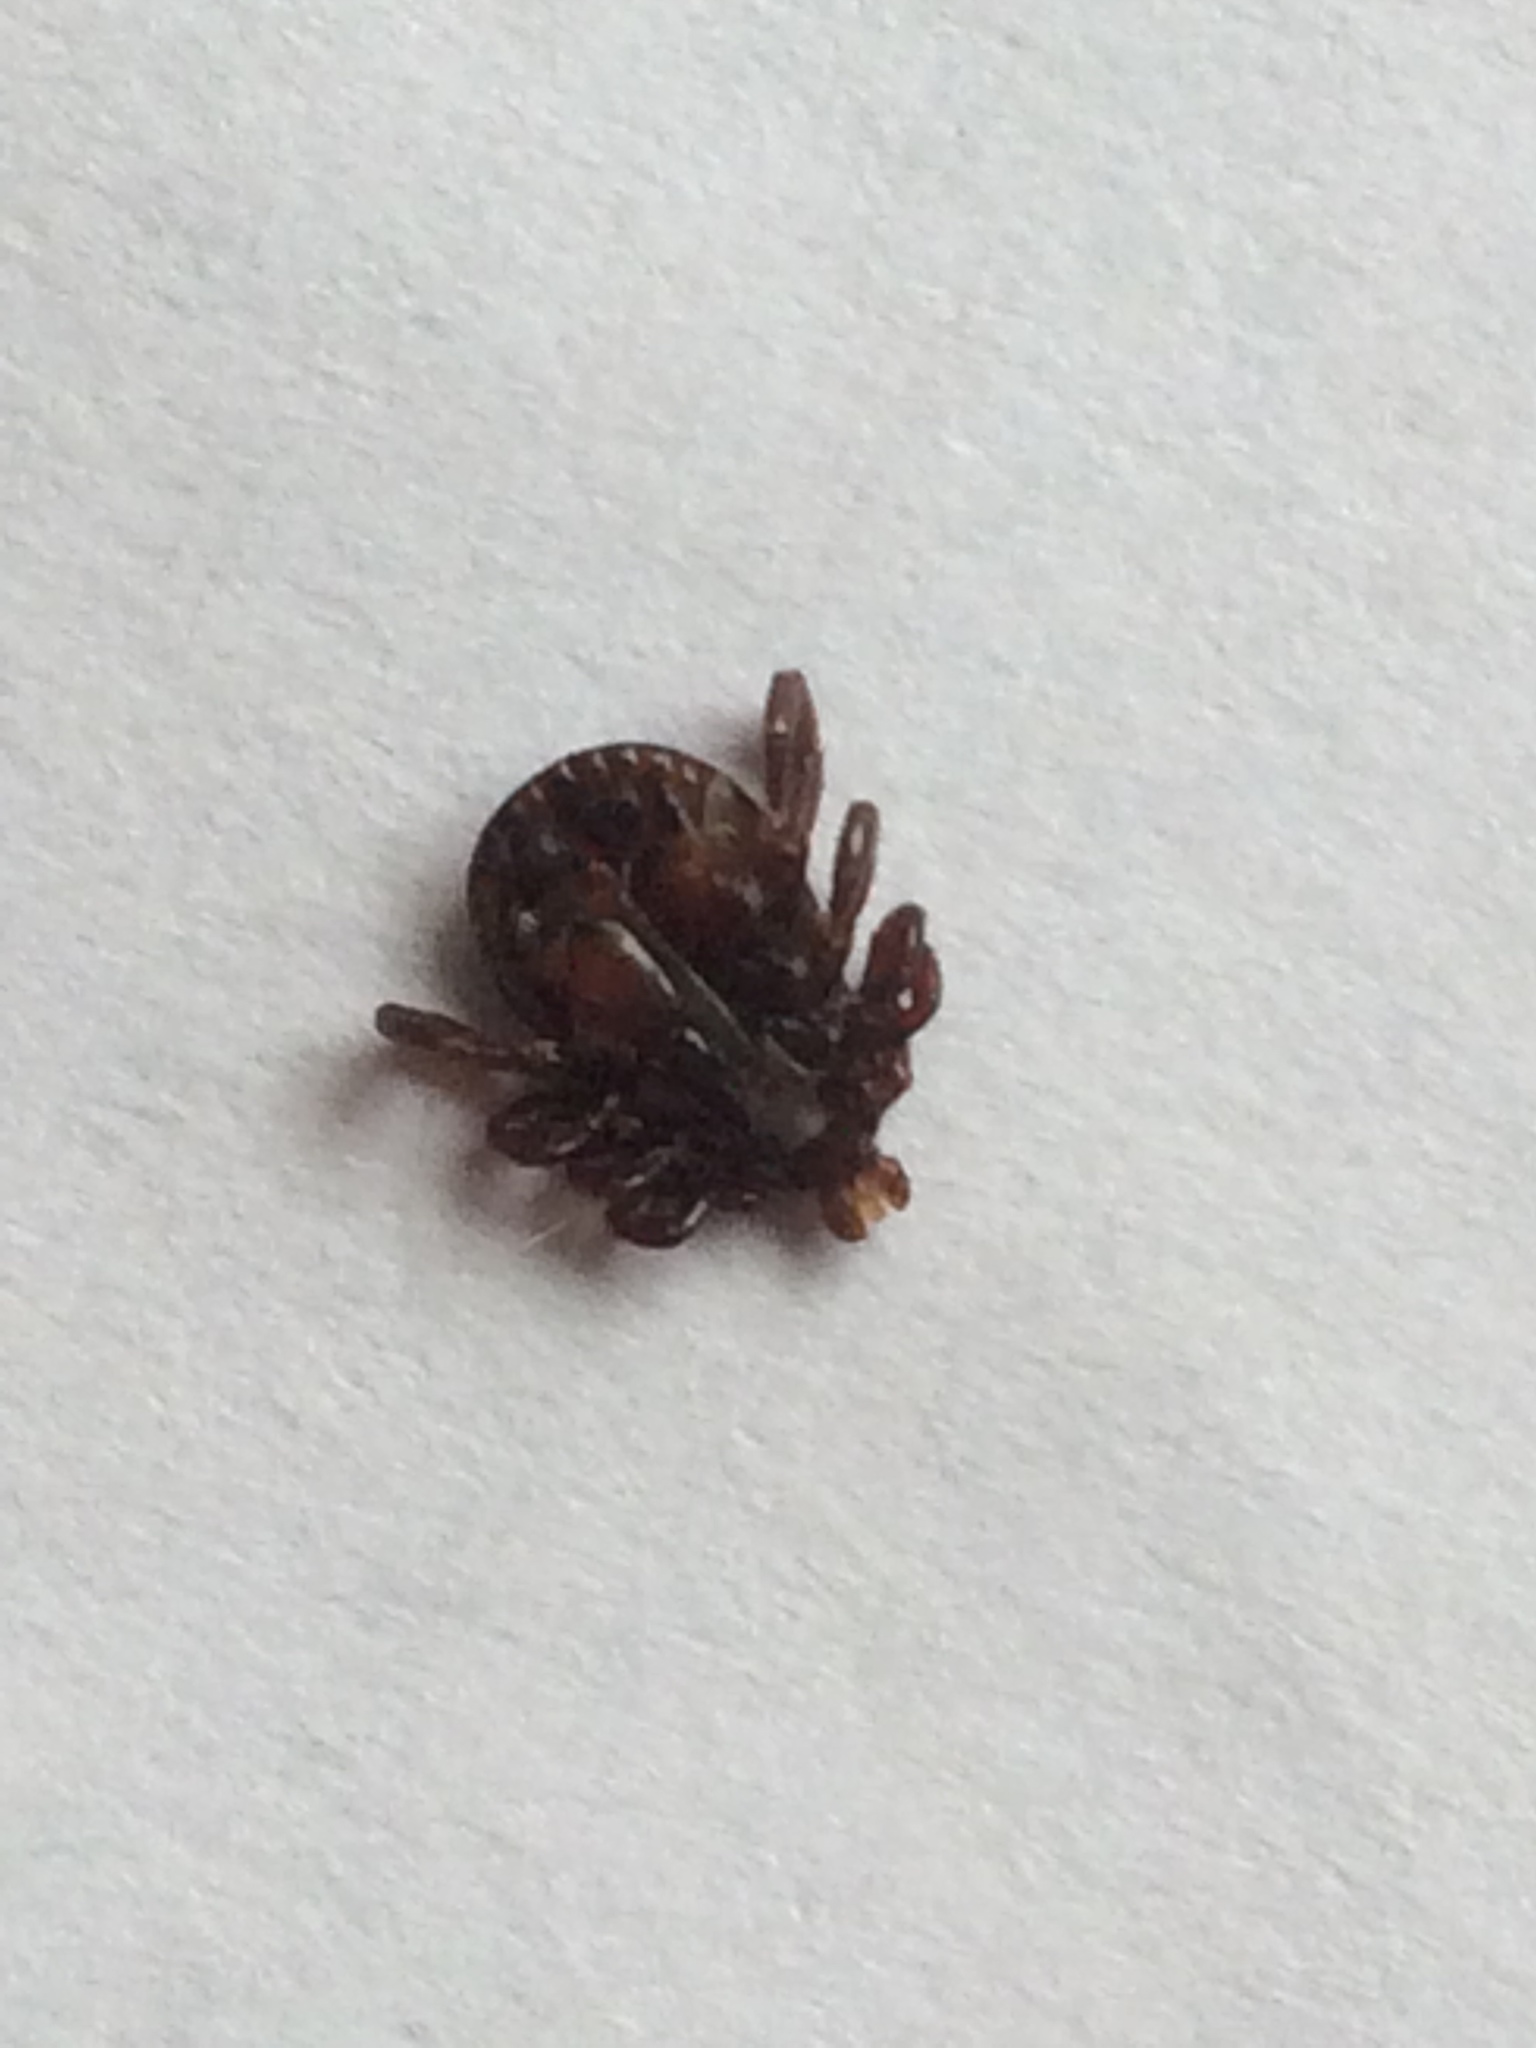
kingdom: Animalia
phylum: Arthropoda
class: Arachnida
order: Ixodida
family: Ixodidae
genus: Dermacentor
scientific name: Dermacentor variabilis
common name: American dog tick
